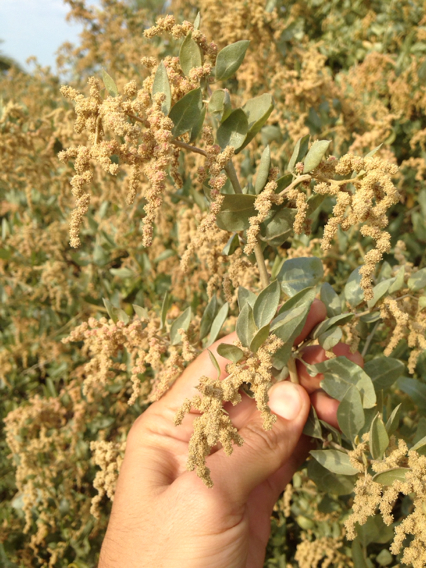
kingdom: Plantae
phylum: Tracheophyta
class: Magnoliopsida
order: Caryophyllales
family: Amaranthaceae
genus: Atriplex
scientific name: Atriplex lentiformis
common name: Big saltbush
